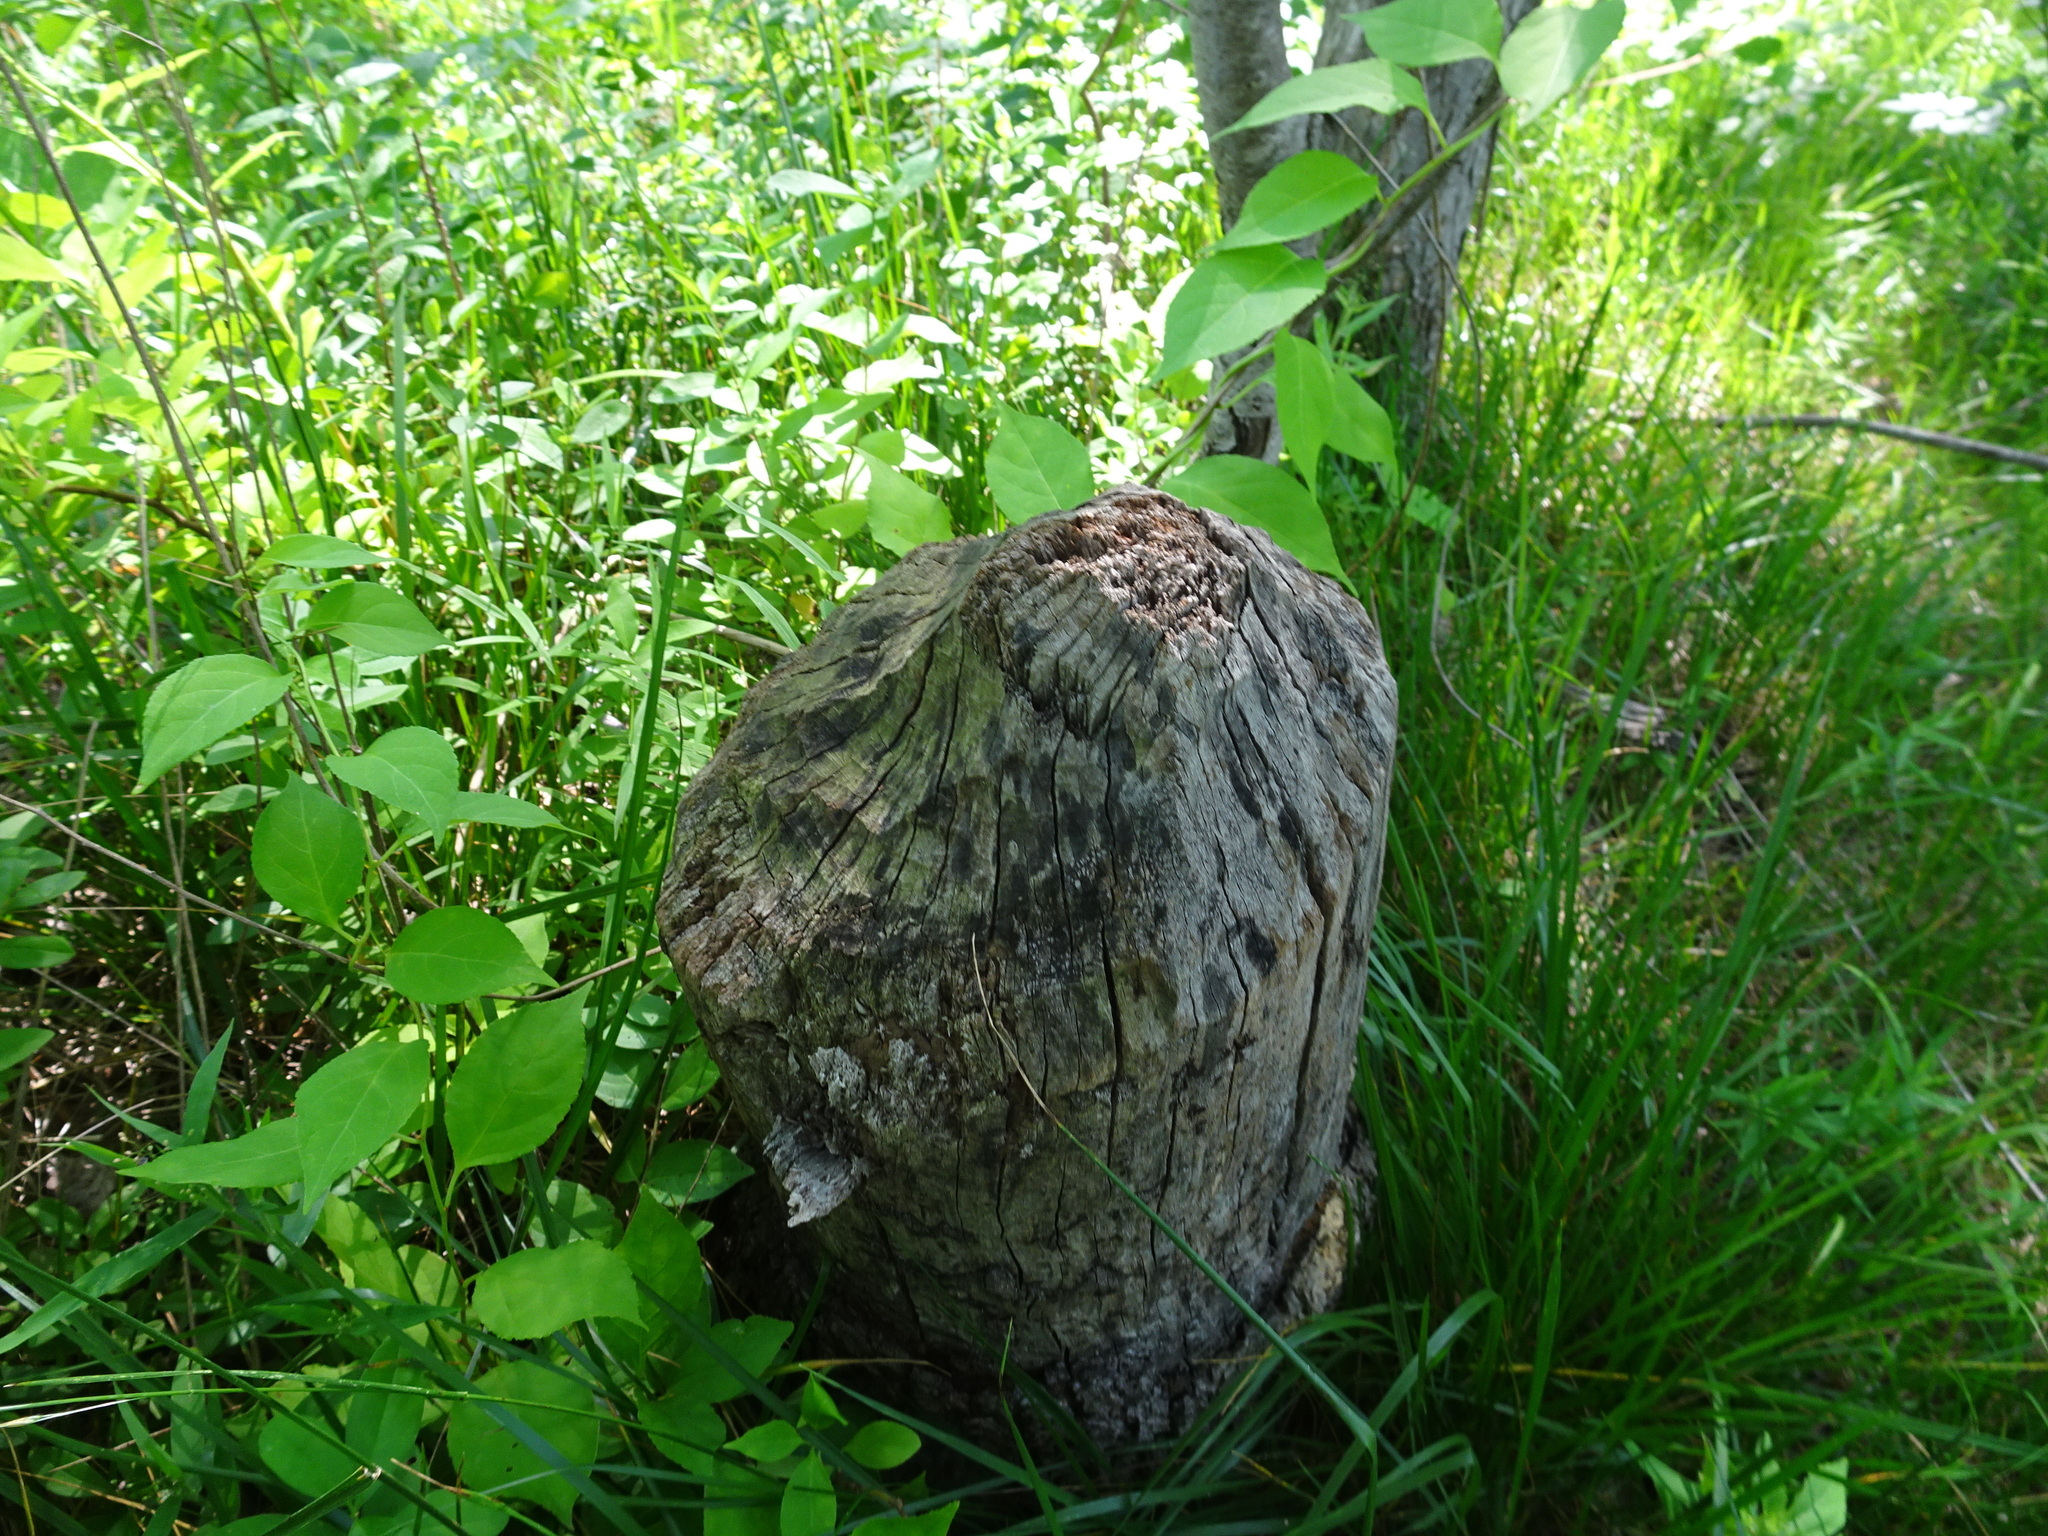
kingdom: Animalia
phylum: Chordata
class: Mammalia
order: Rodentia
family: Castoridae
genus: Castor
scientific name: Castor canadensis
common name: American beaver
